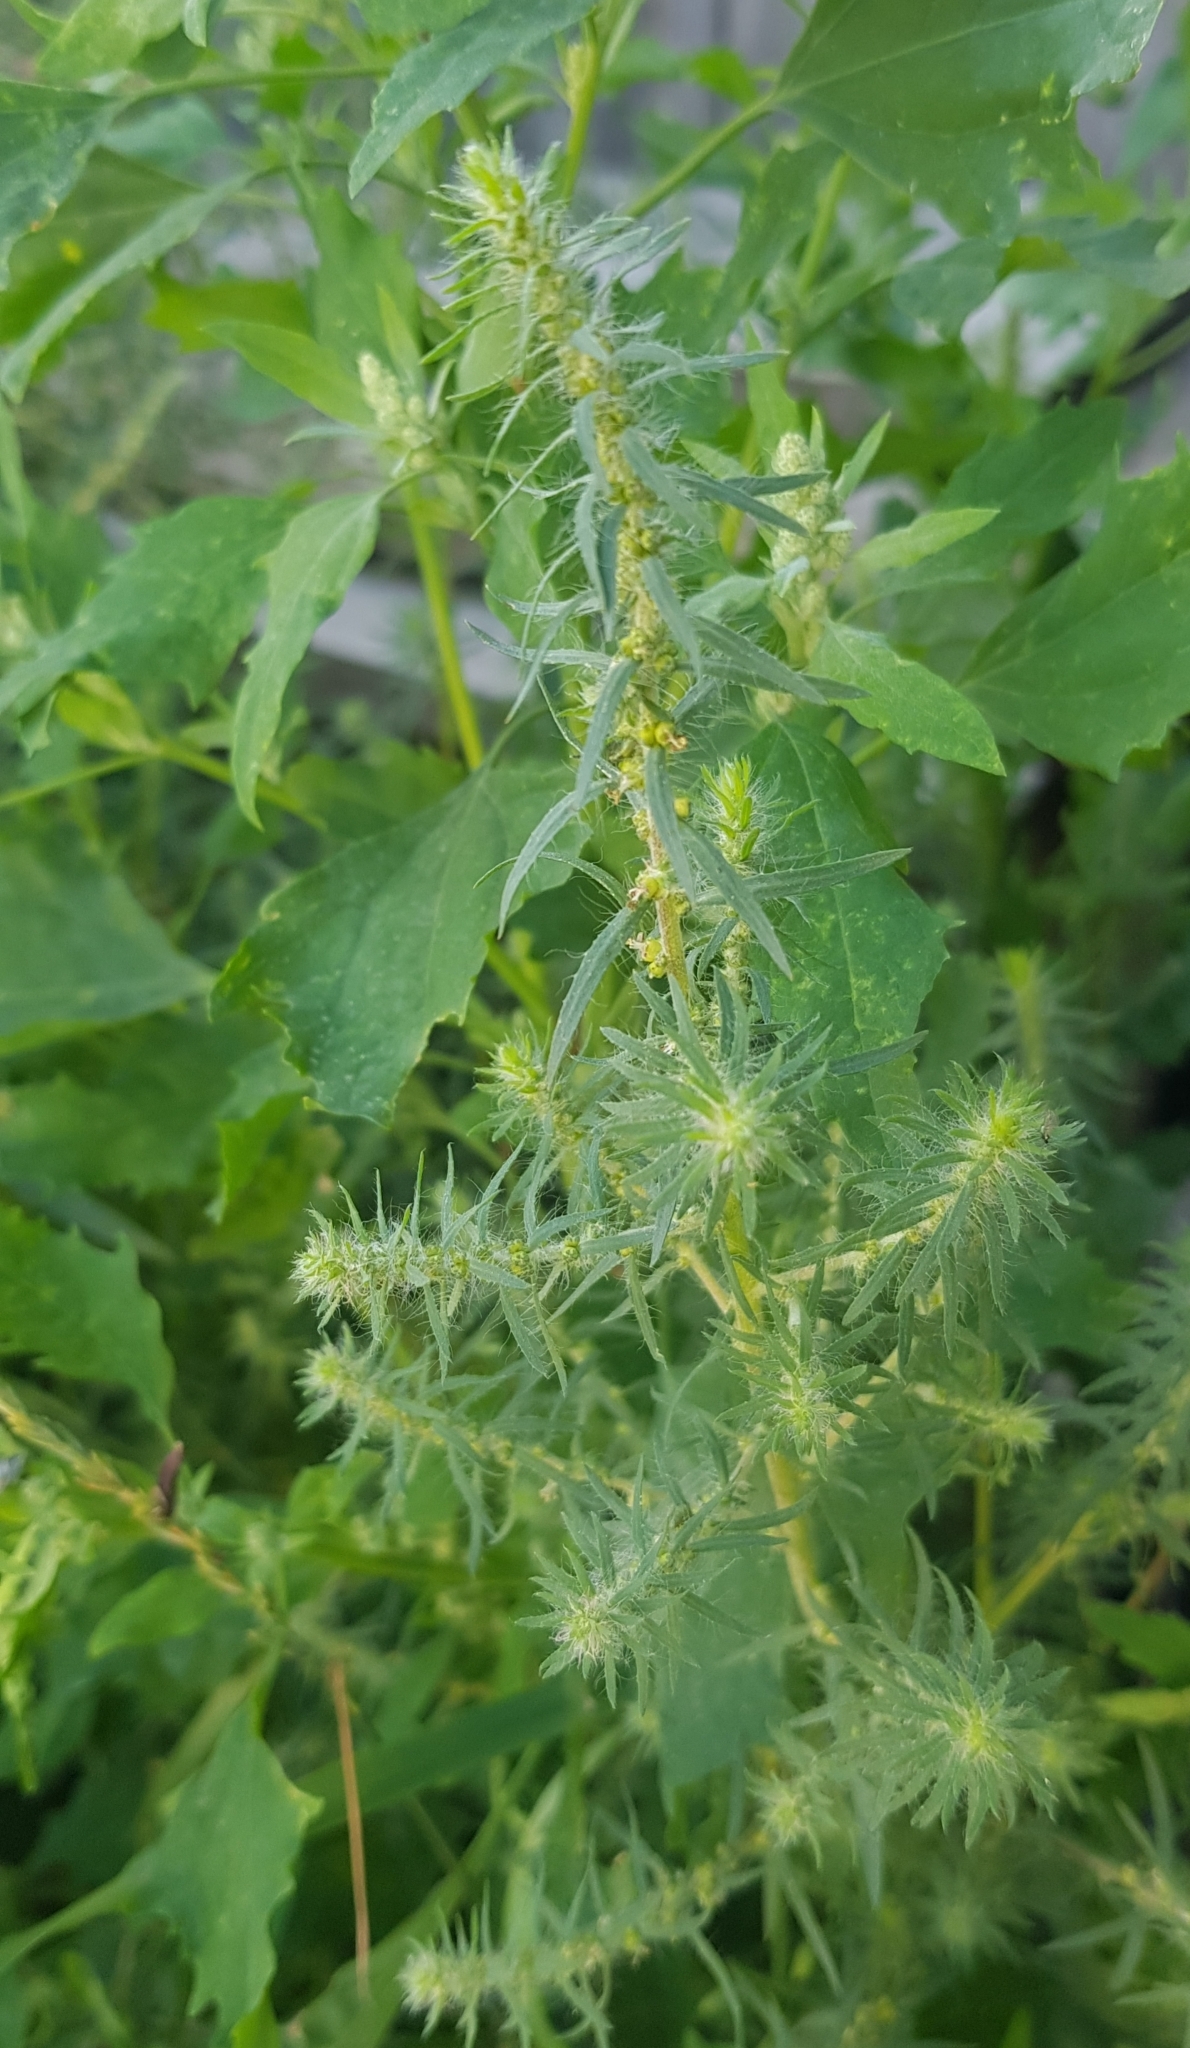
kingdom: Plantae
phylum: Tracheophyta
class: Magnoliopsida
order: Caryophyllales
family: Amaranthaceae
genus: Bassia
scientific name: Bassia scoparia
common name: Belvedere
